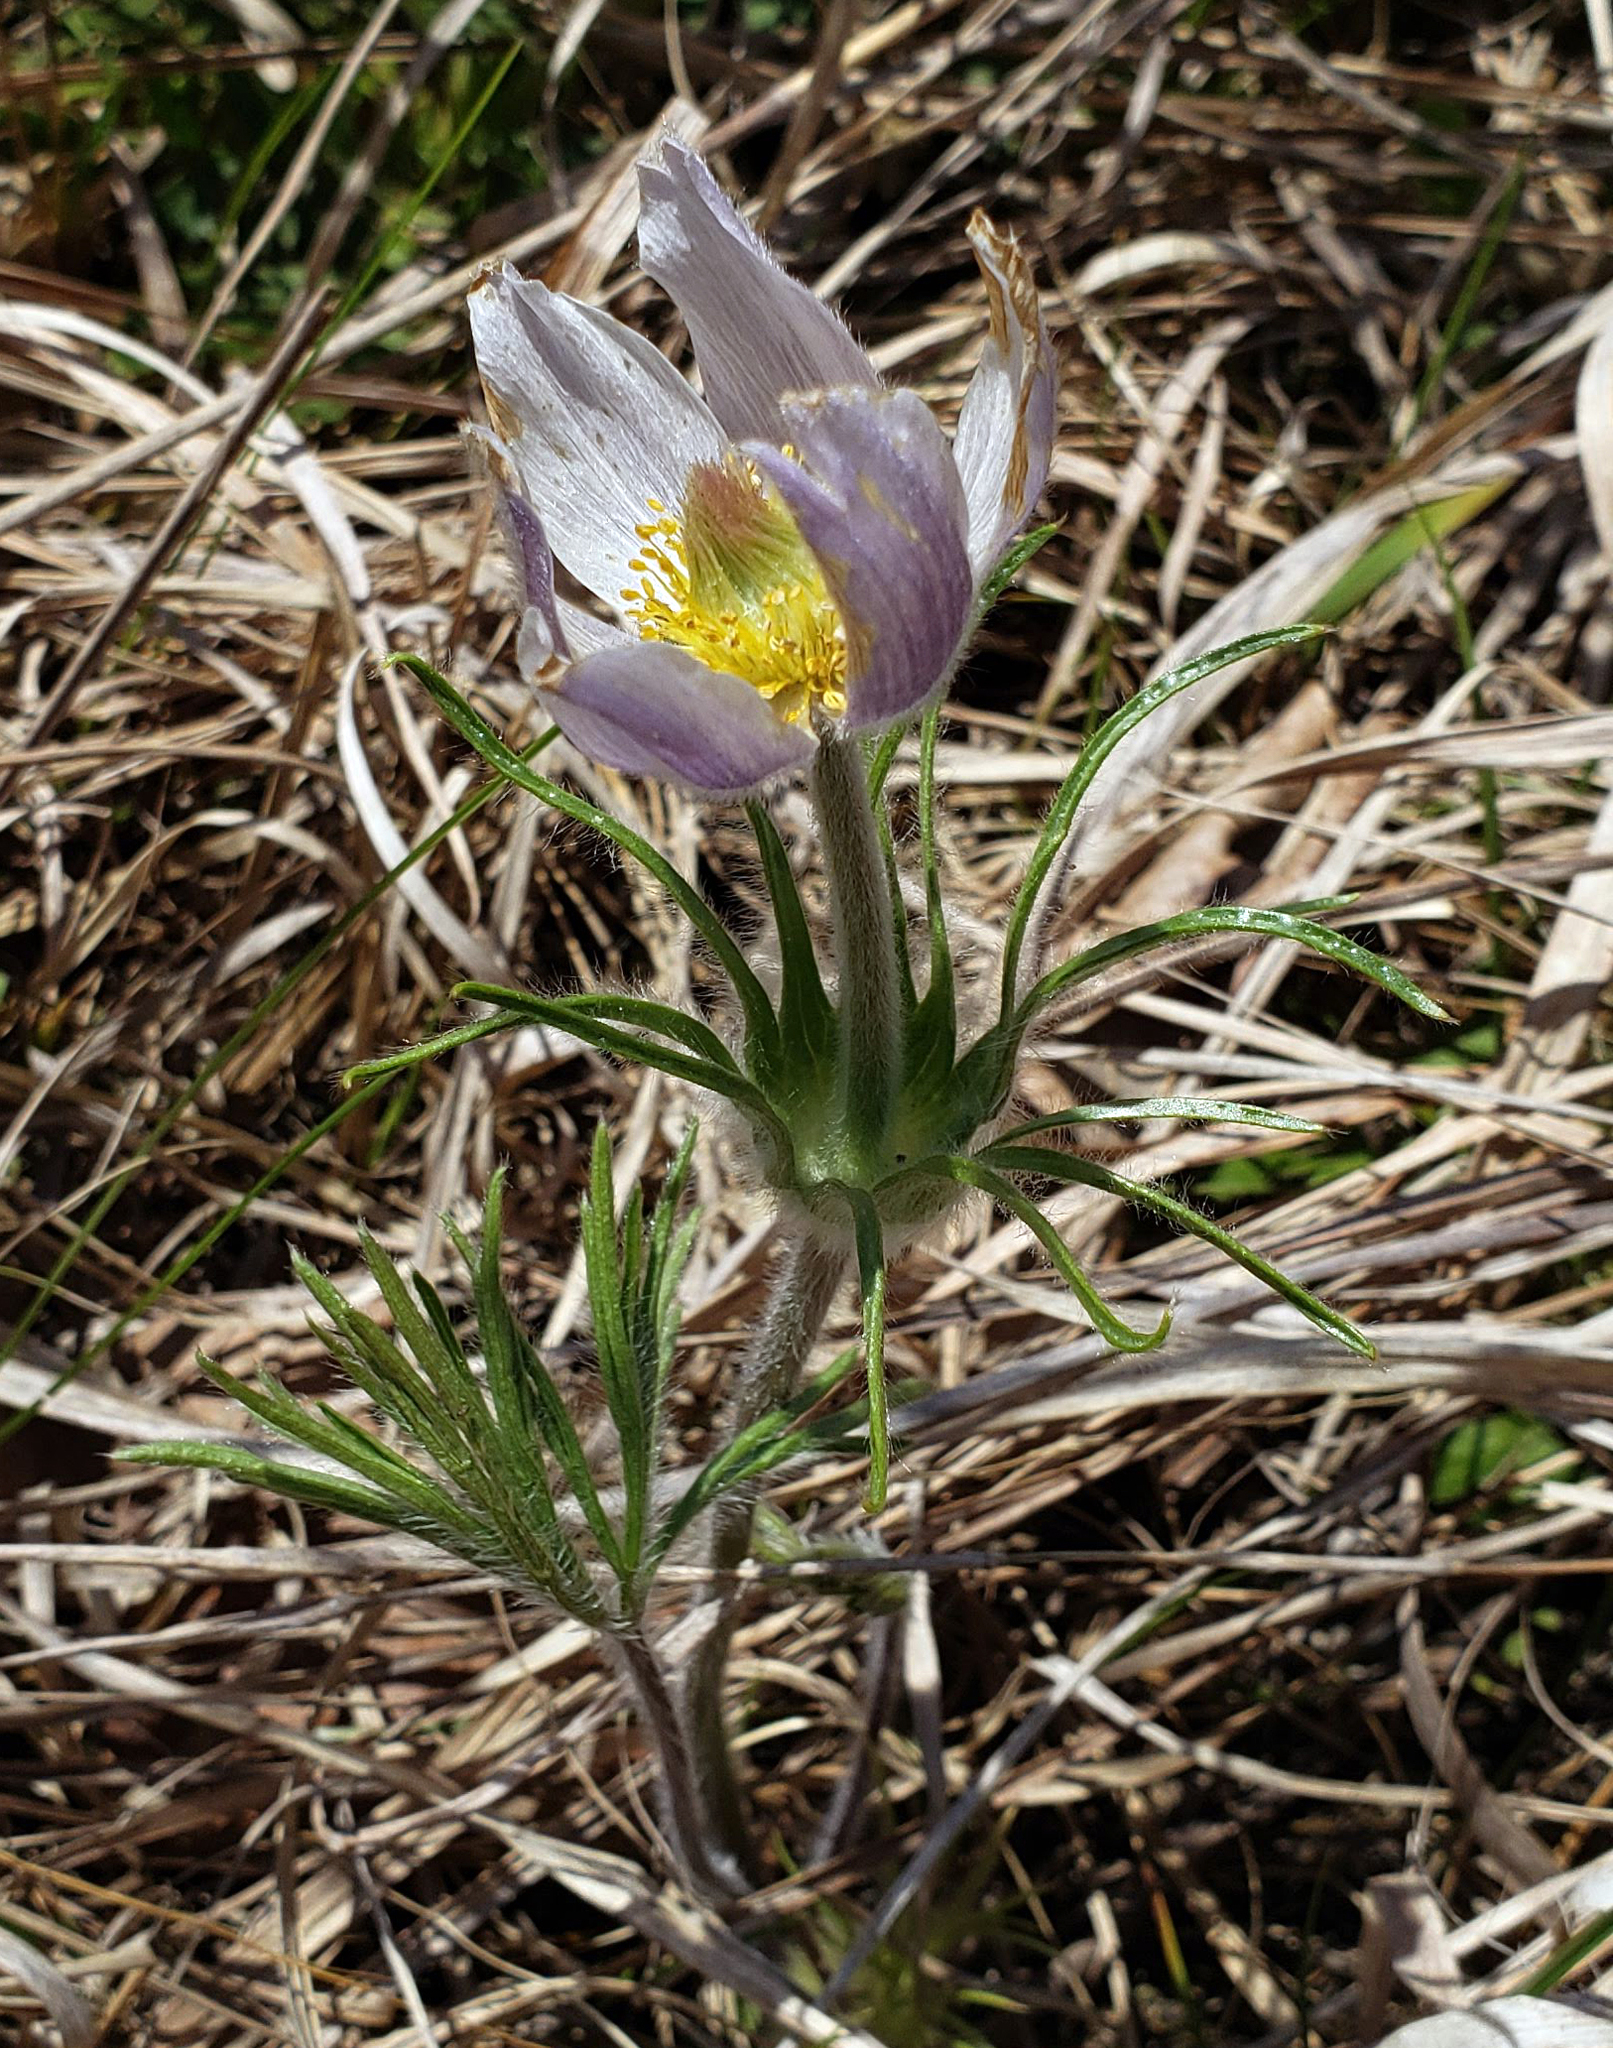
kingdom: Plantae
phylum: Tracheophyta
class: Magnoliopsida
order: Ranunculales
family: Ranunculaceae
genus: Pulsatilla
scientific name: Pulsatilla nuttalliana
